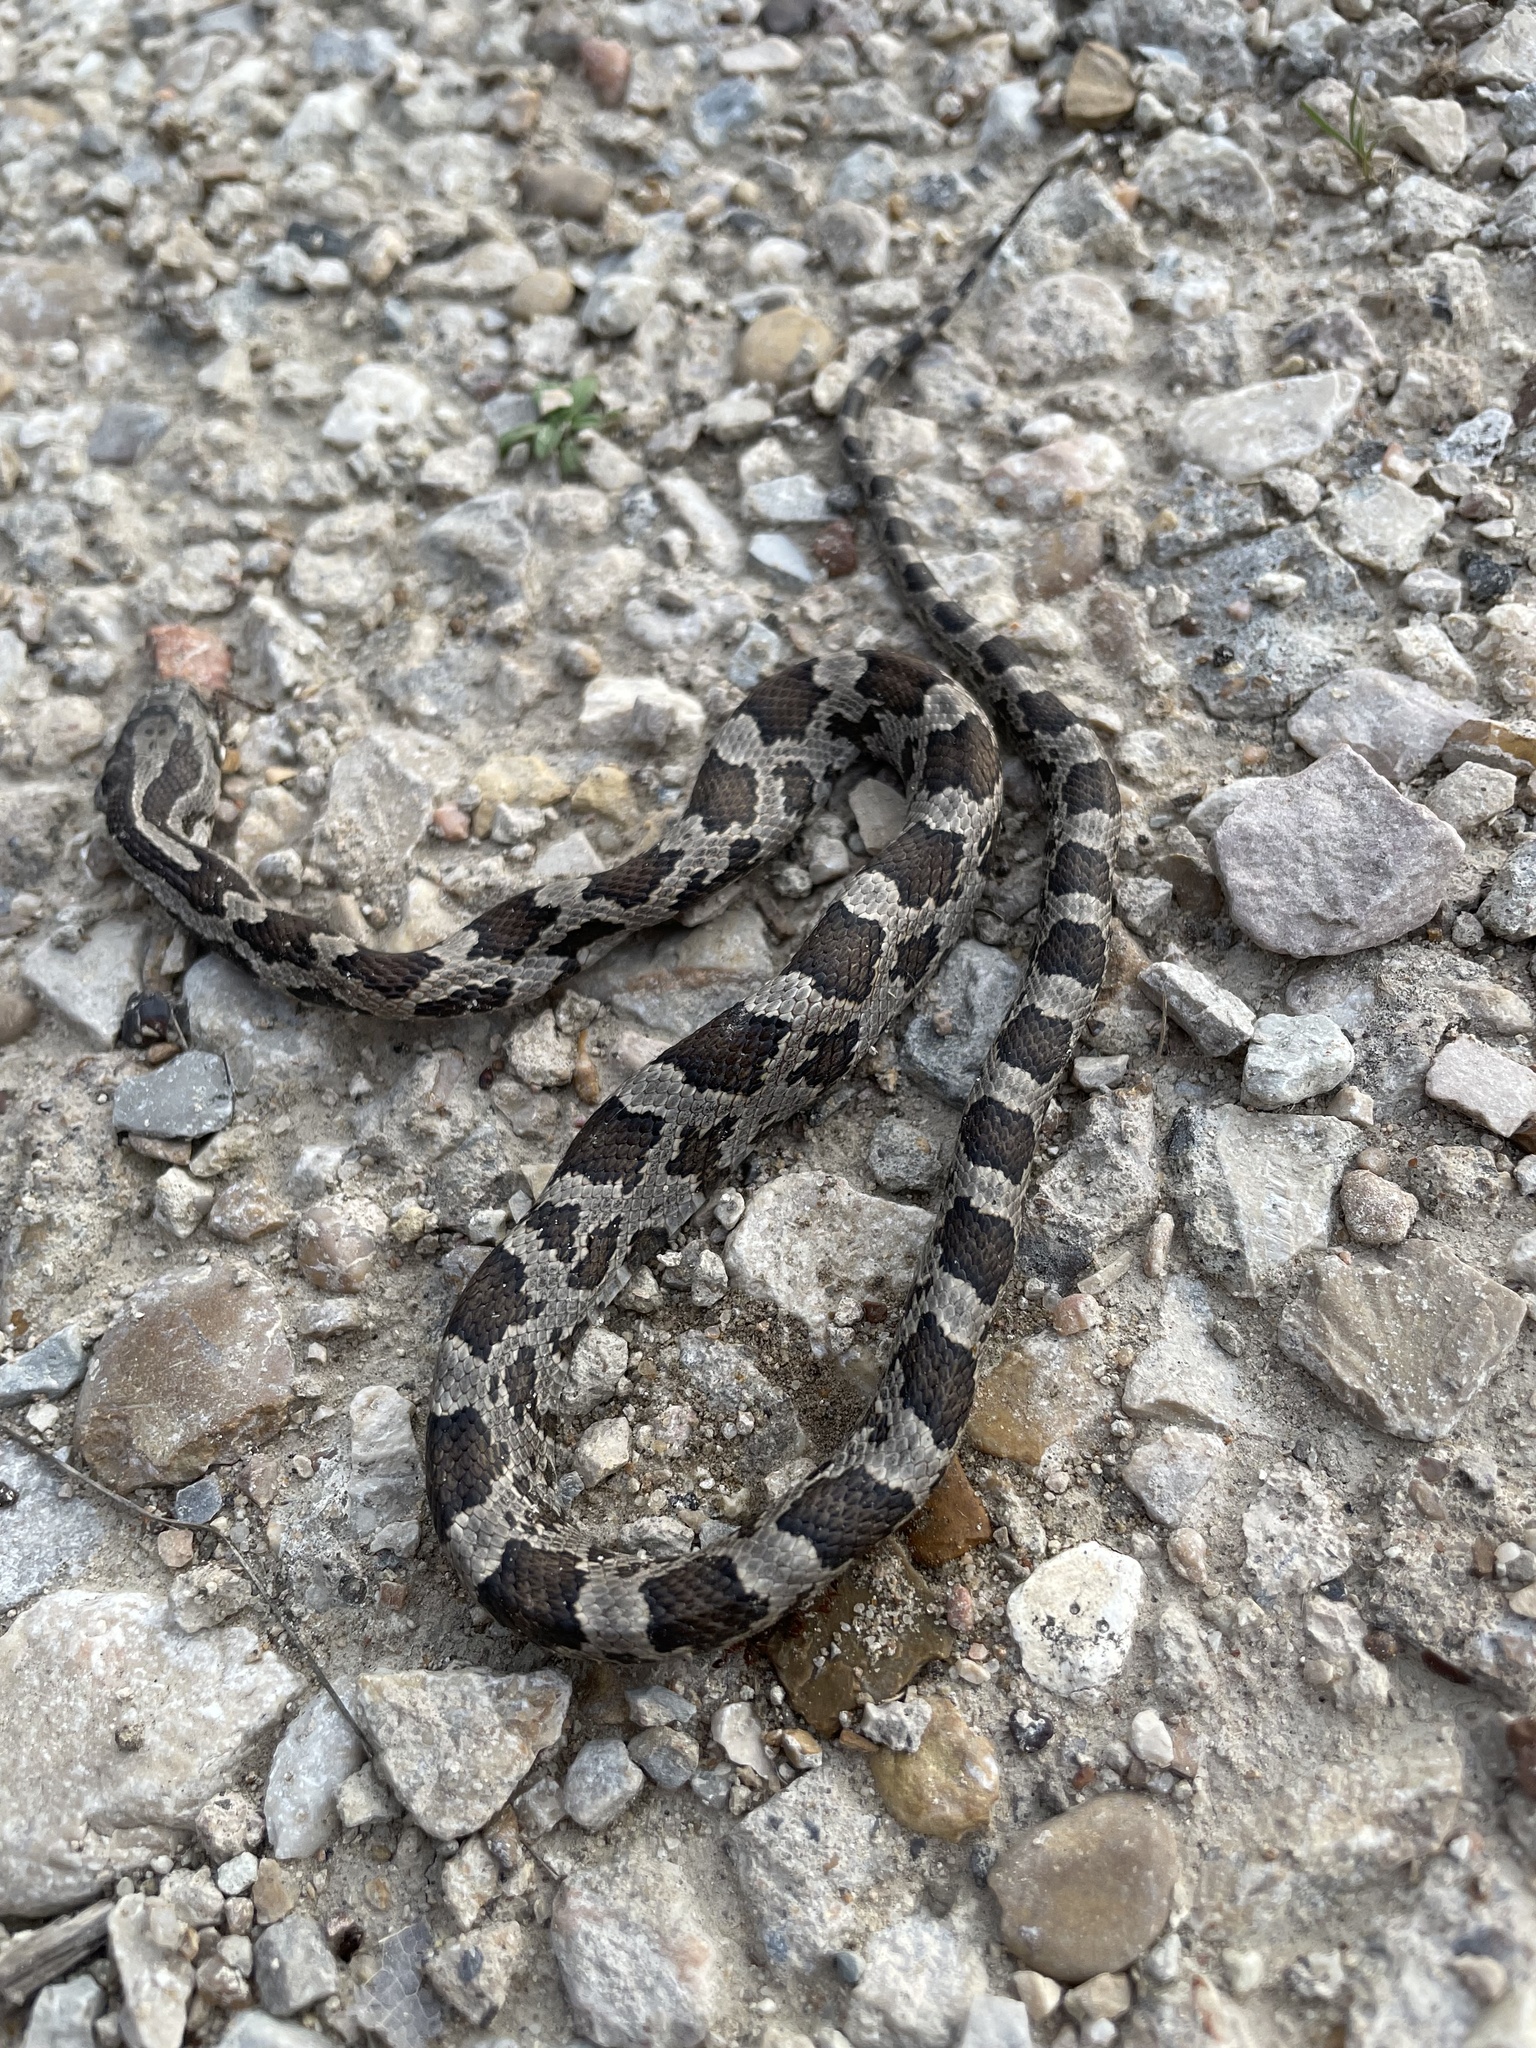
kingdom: Animalia
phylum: Chordata
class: Squamata
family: Colubridae
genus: Pantherophis
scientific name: Pantherophis obsoletus
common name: Black rat snake
